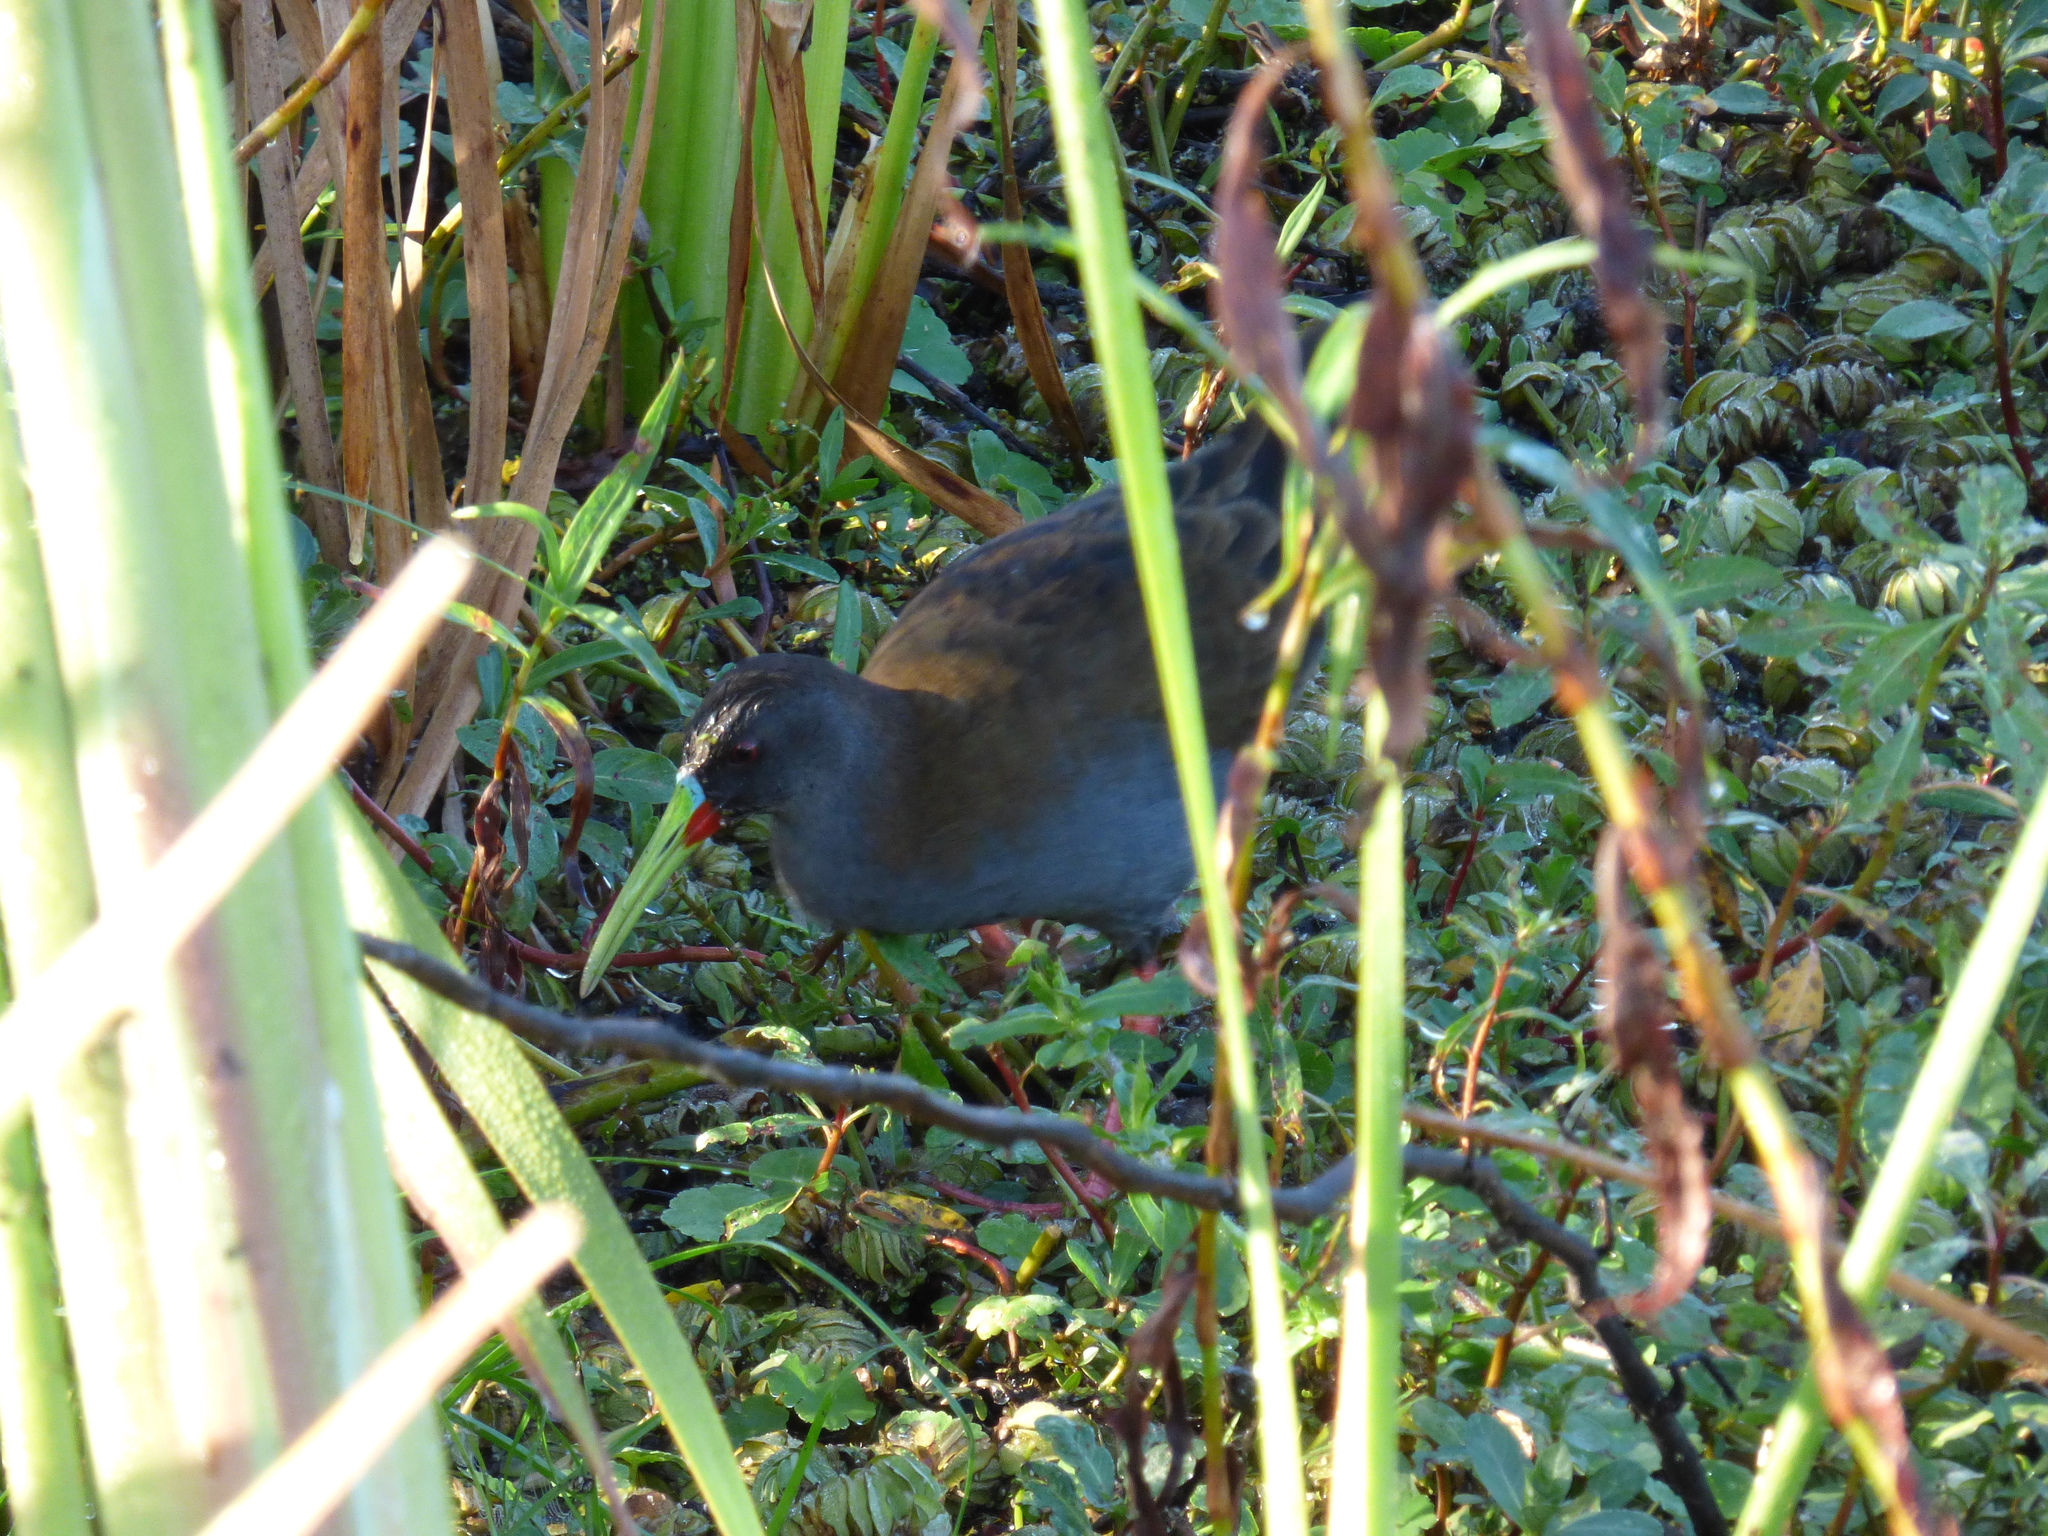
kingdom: Animalia
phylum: Chordata
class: Aves
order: Gruiformes
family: Rallidae
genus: Pardirallus
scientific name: Pardirallus sanguinolentus
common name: Plumbeous rail
